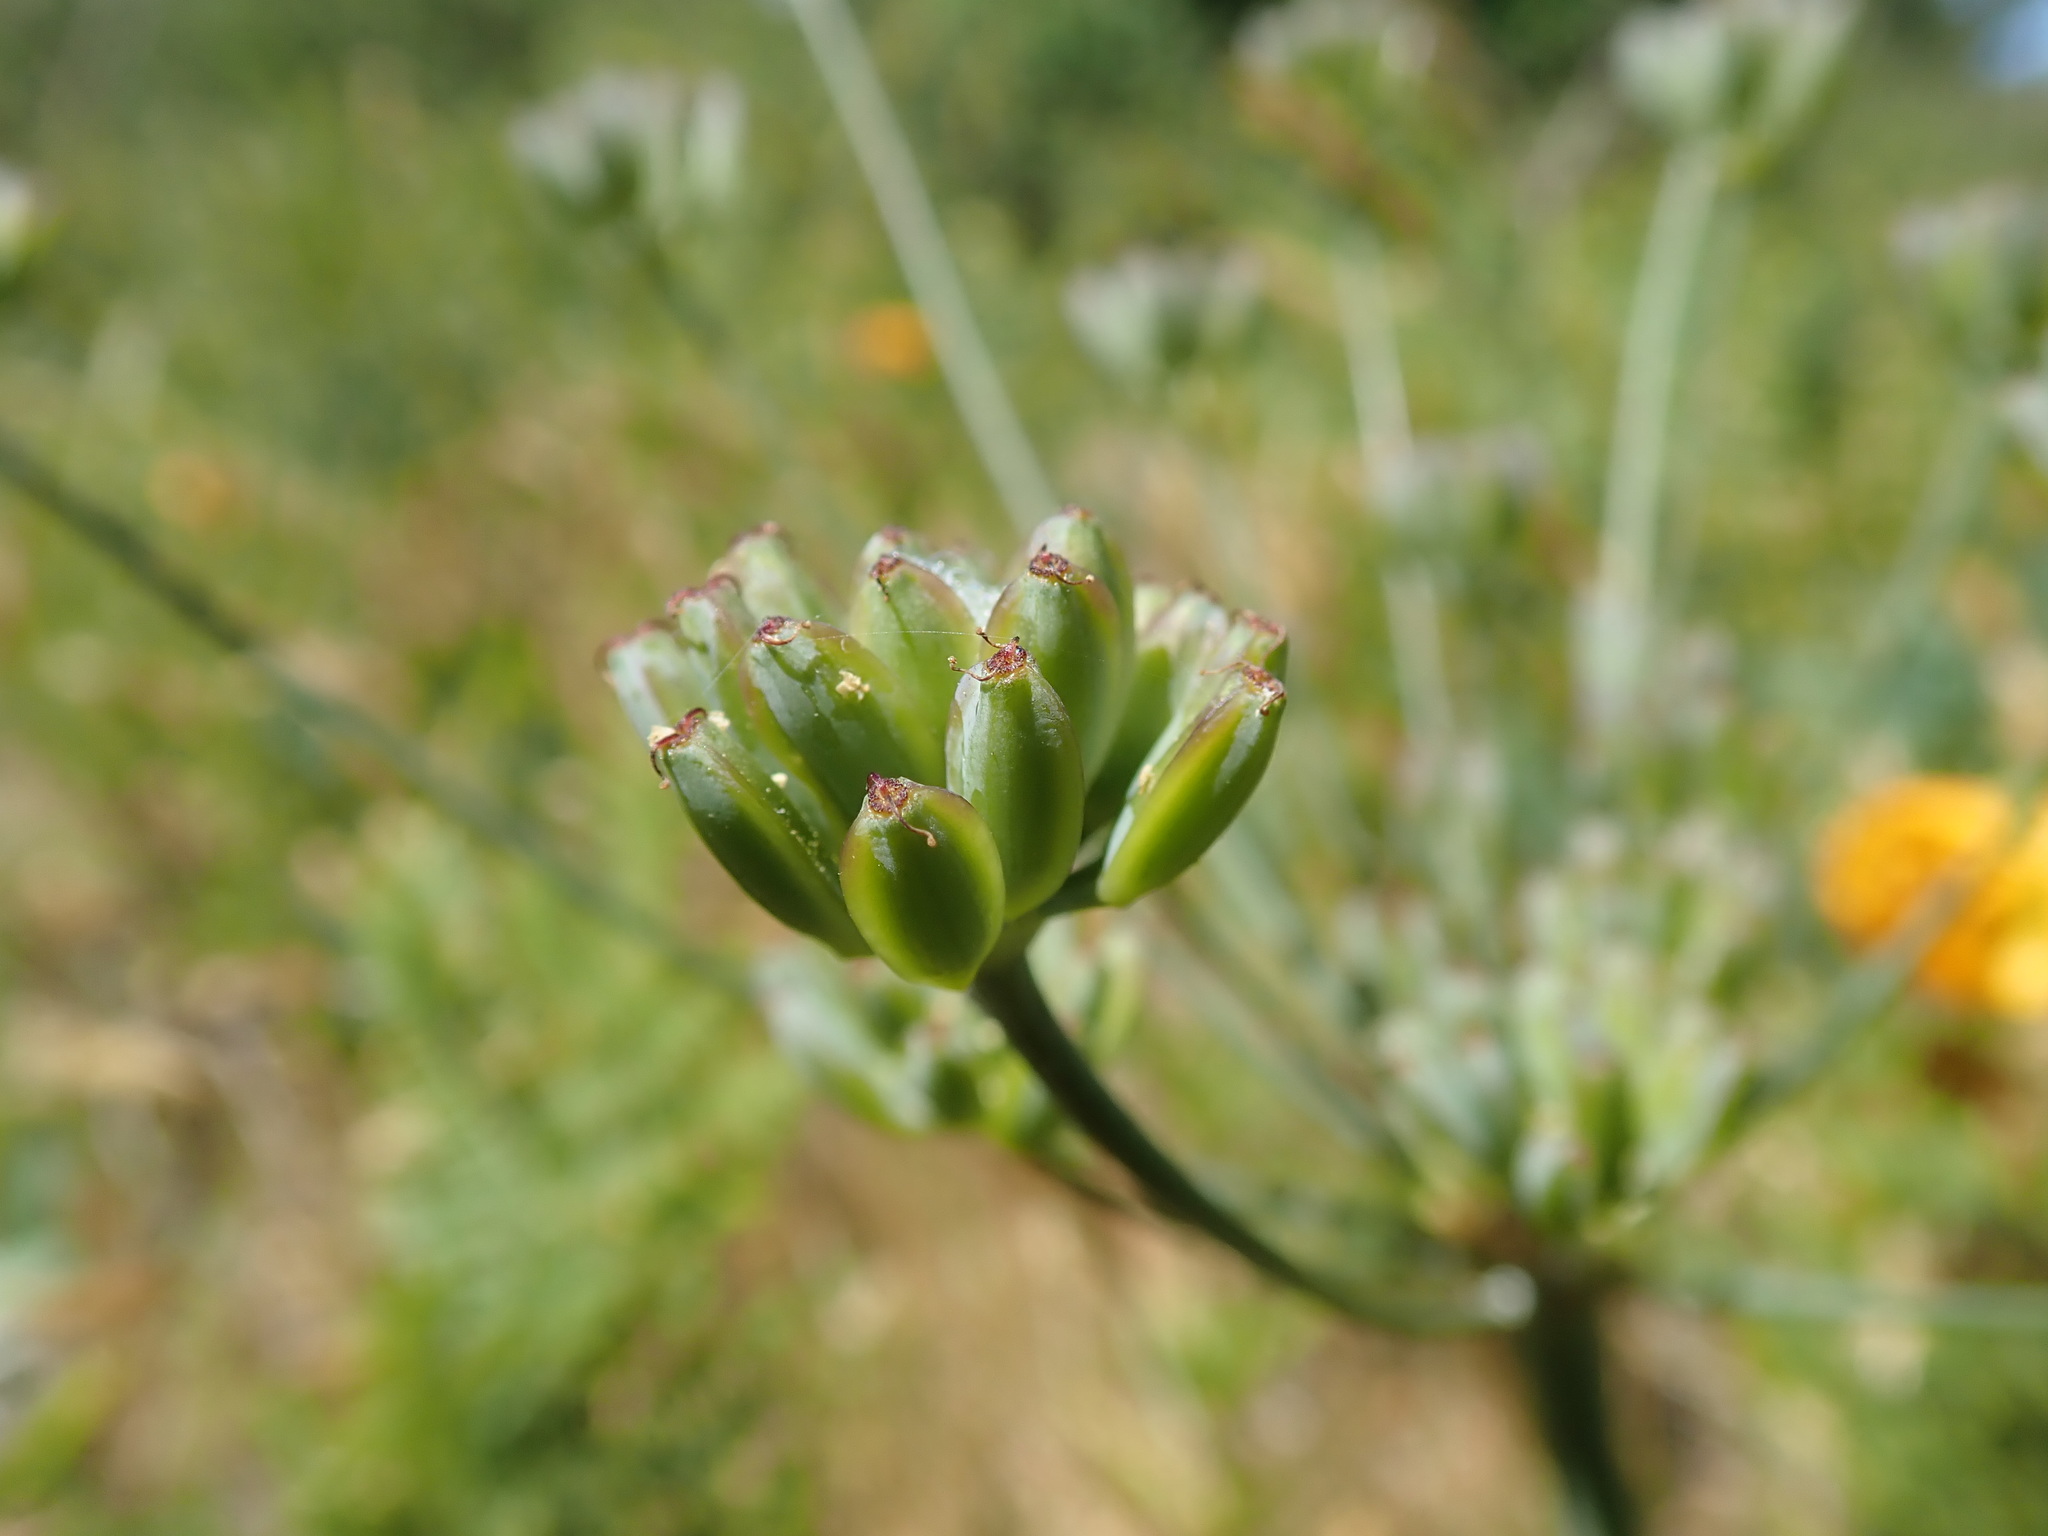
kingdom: Plantae
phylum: Tracheophyta
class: Magnoliopsida
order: Apiales
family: Apiaceae
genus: Lomatium
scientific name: Lomatium nudicaule
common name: Pestle lomatium
